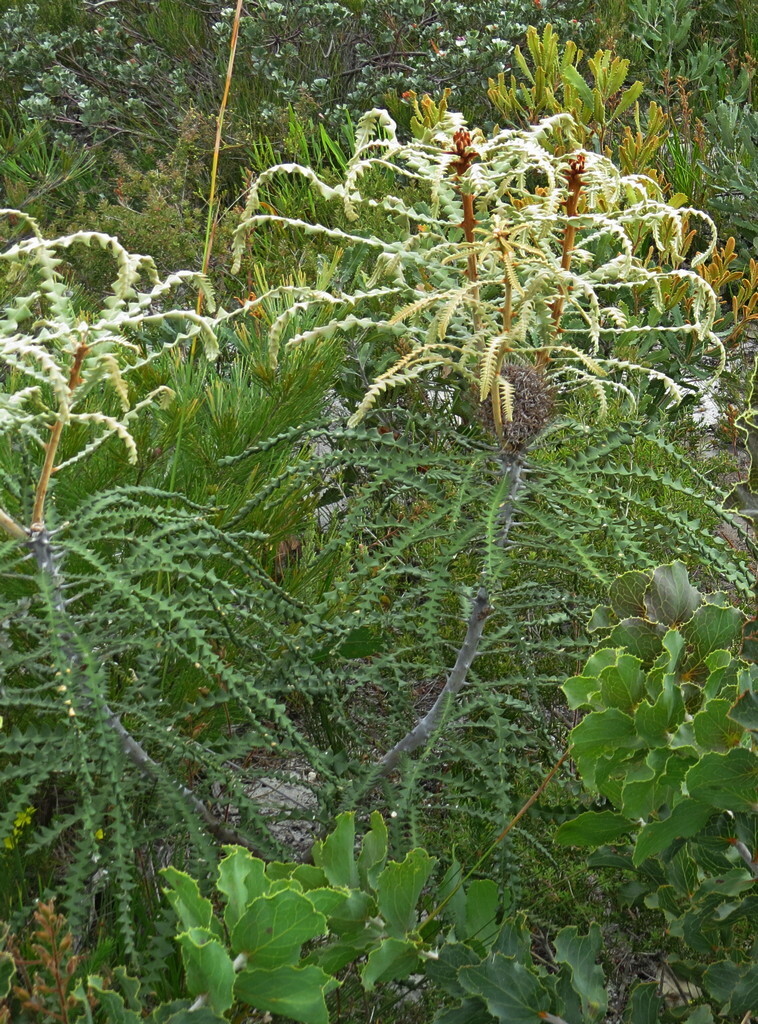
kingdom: Plantae
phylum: Tracheophyta
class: Magnoliopsida
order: Proteales
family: Proteaceae
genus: Banksia
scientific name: Banksia speciosa
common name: Showy banksia
